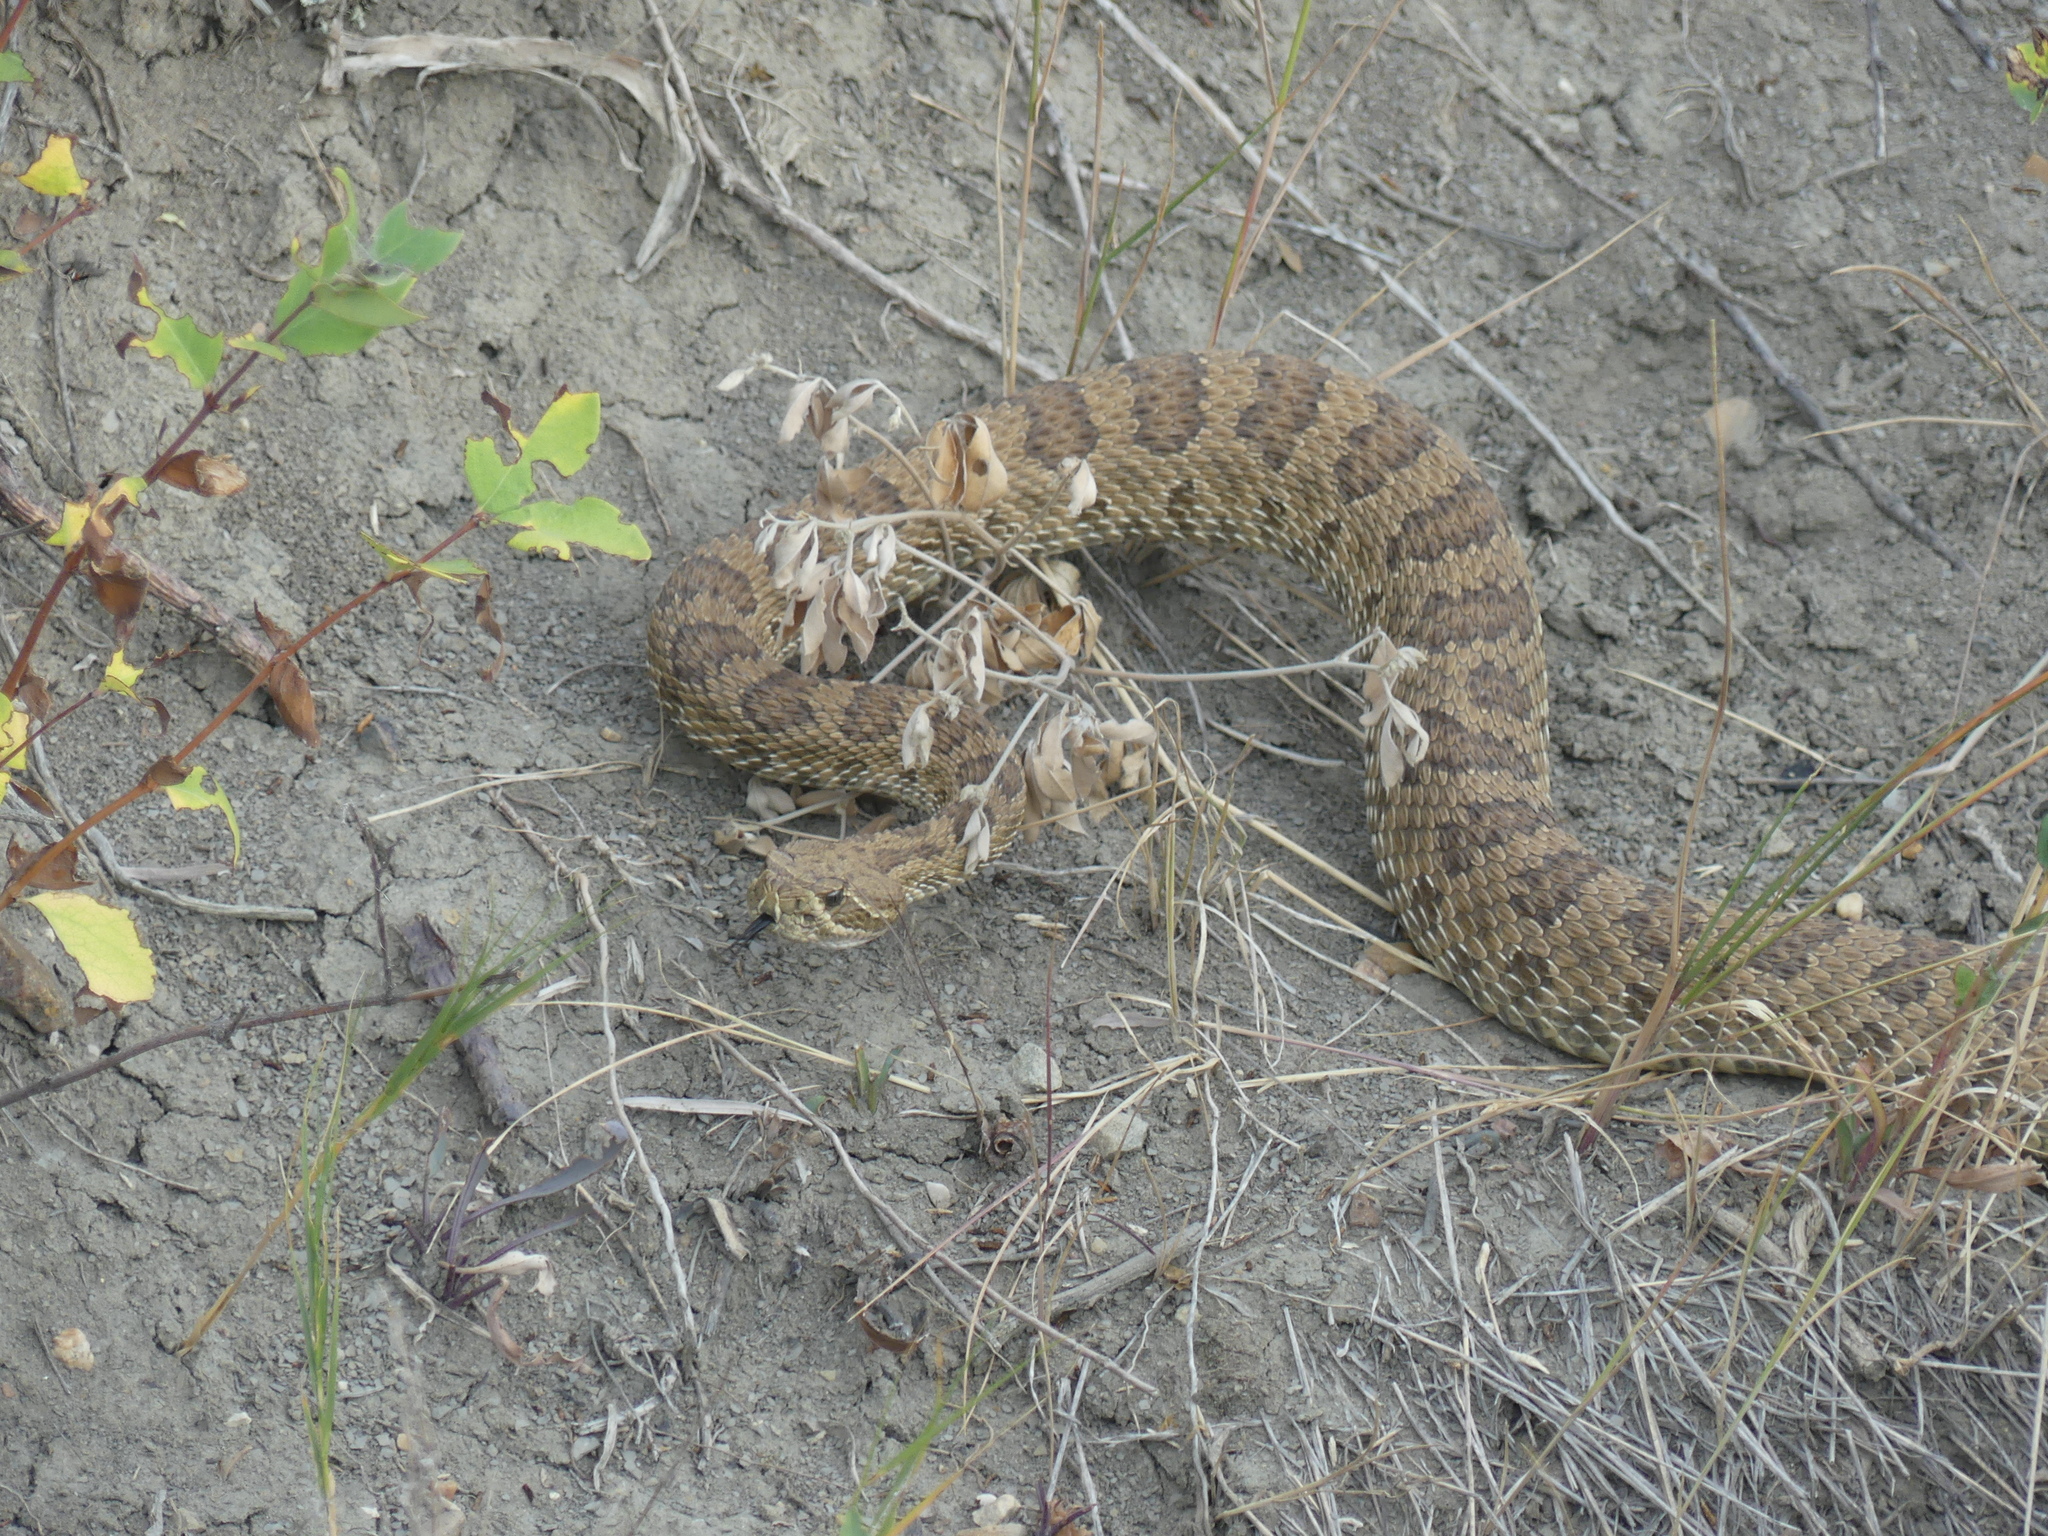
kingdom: Animalia
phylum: Chordata
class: Squamata
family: Viperidae
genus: Crotalus
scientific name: Crotalus viridis
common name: Prairie rattlesnake
